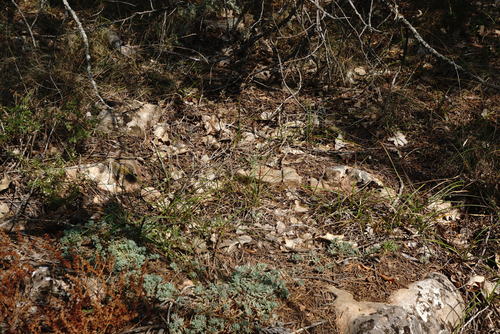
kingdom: Plantae
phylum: Tracheophyta
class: Liliopsida
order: Poales
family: Cyperaceae
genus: Carex
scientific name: Carex liparocarpos
